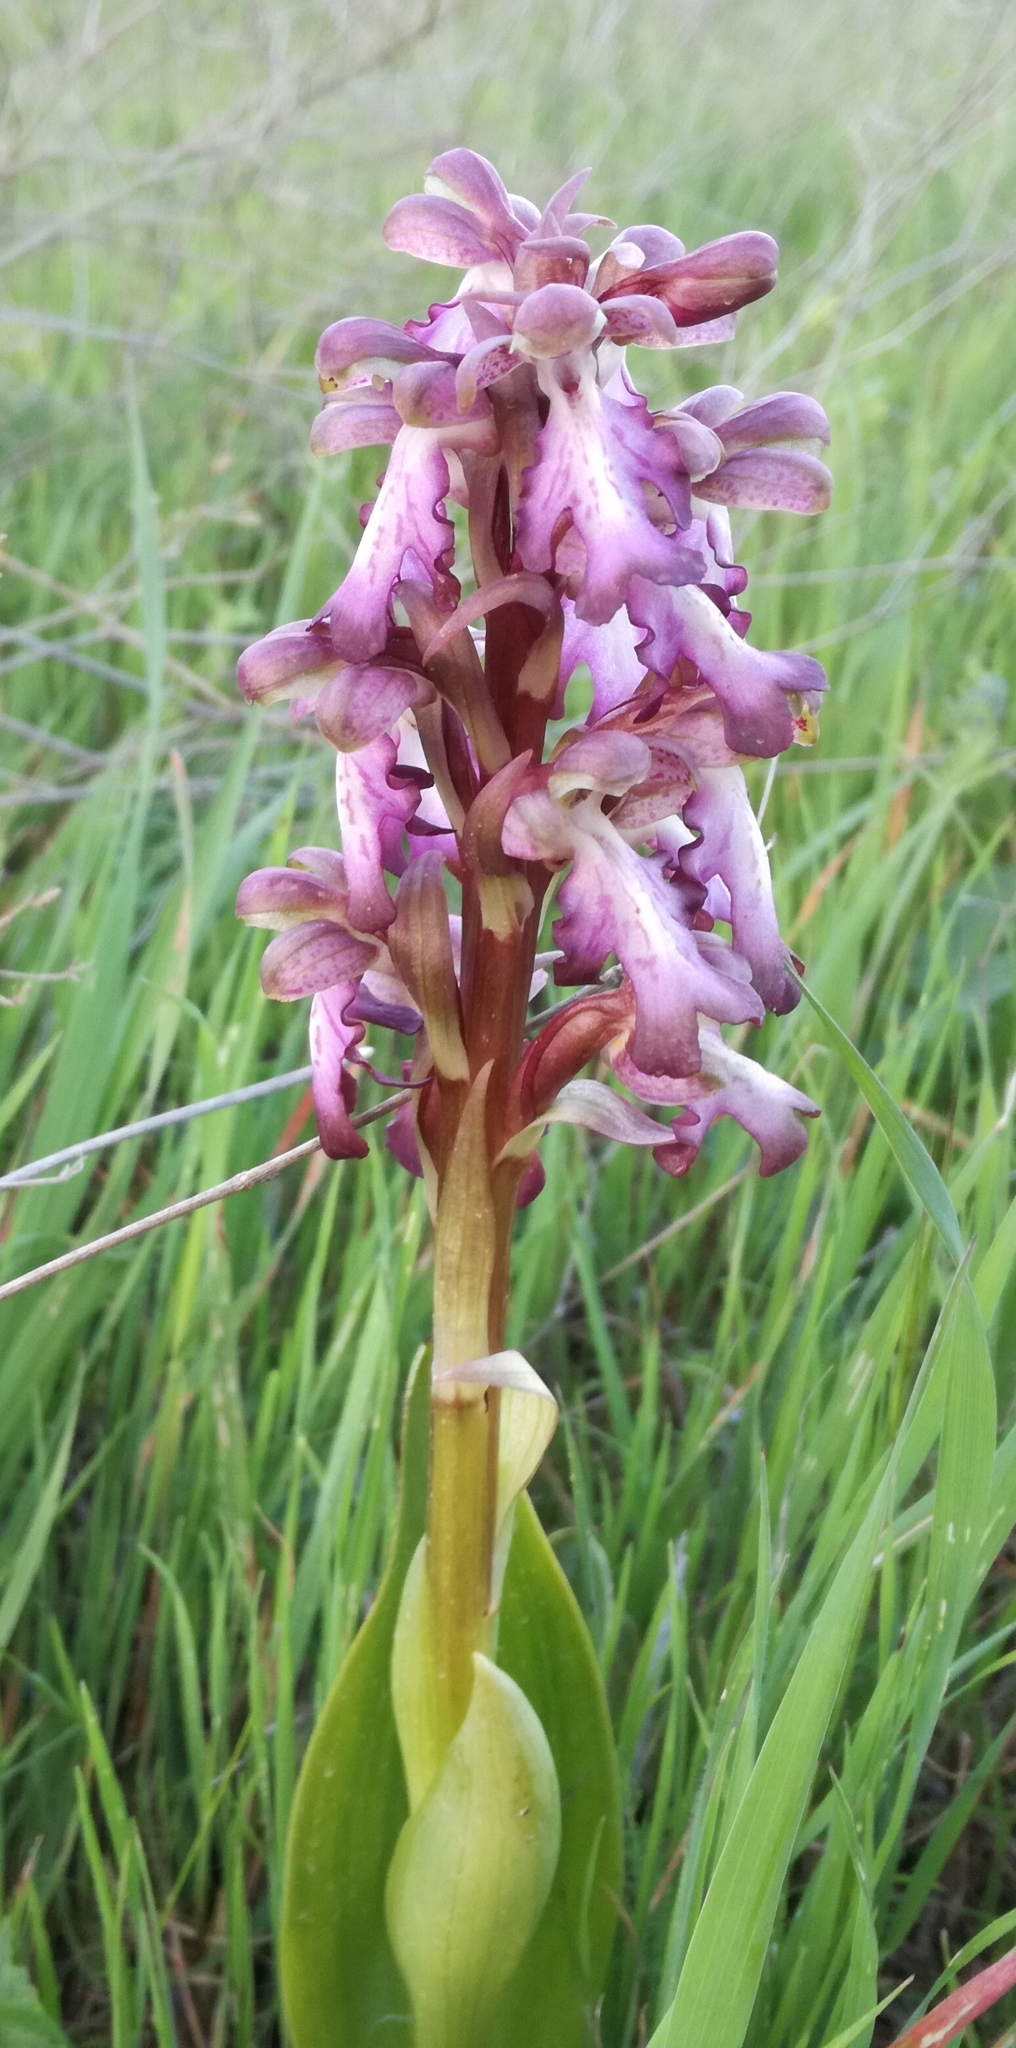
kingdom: Plantae
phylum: Tracheophyta
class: Liliopsida
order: Asparagales
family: Orchidaceae
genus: Himantoglossum
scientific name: Himantoglossum robertianum
